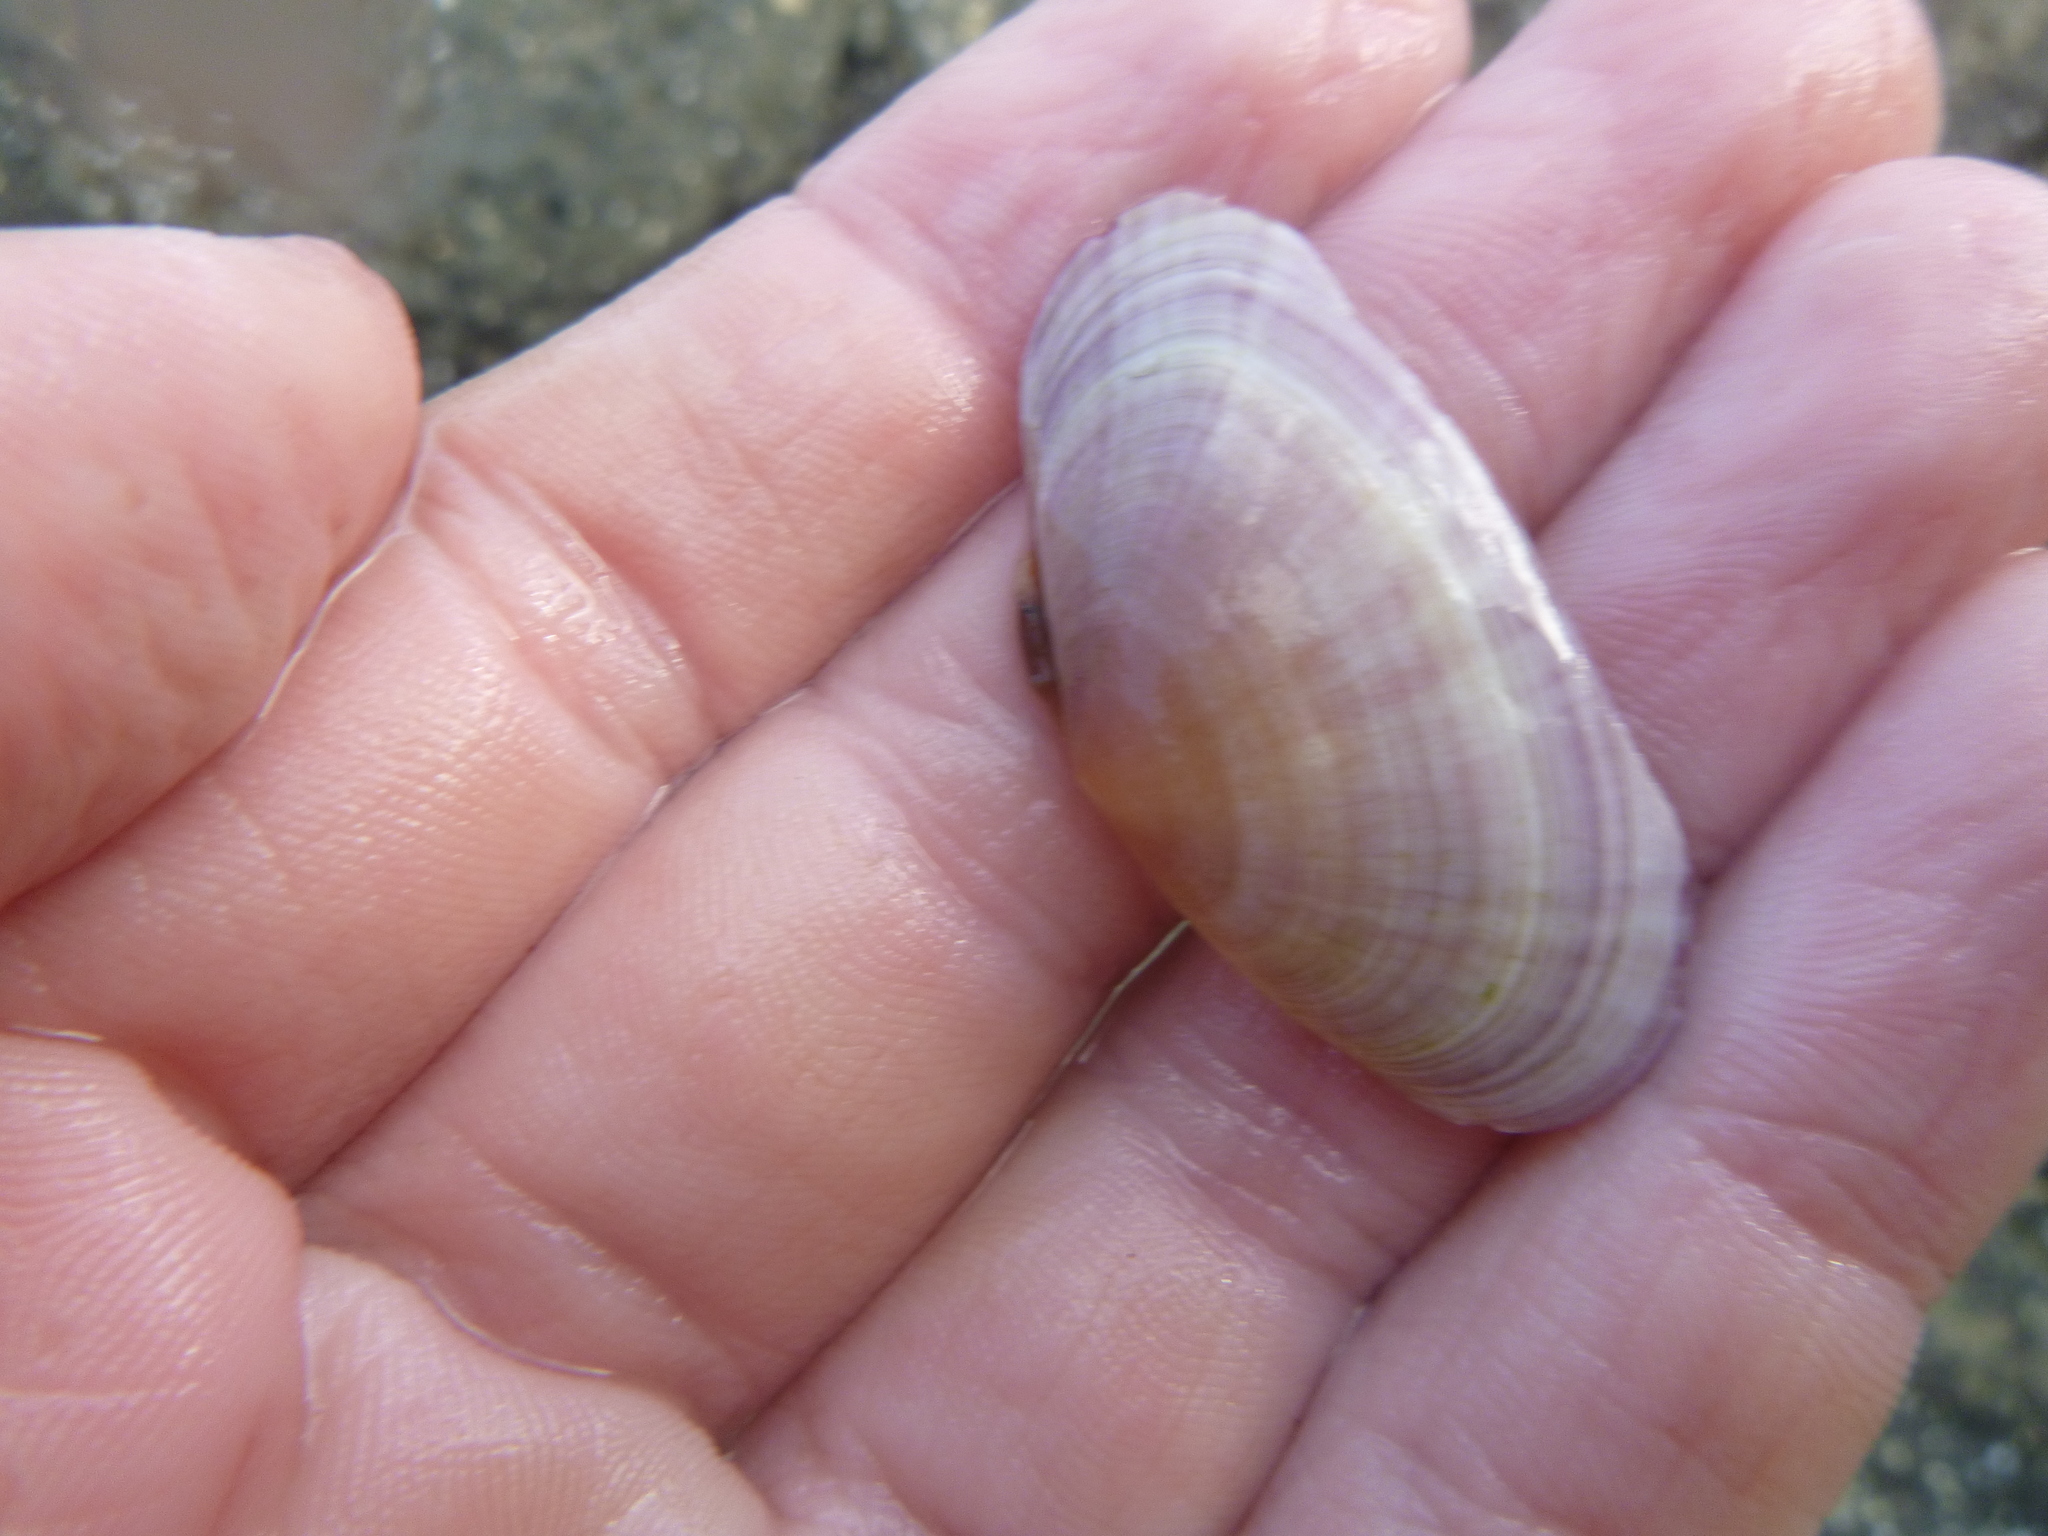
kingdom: Animalia
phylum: Mollusca
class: Bivalvia
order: Cardiida
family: Psammobiidae
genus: Gari
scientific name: Gari stangeri
